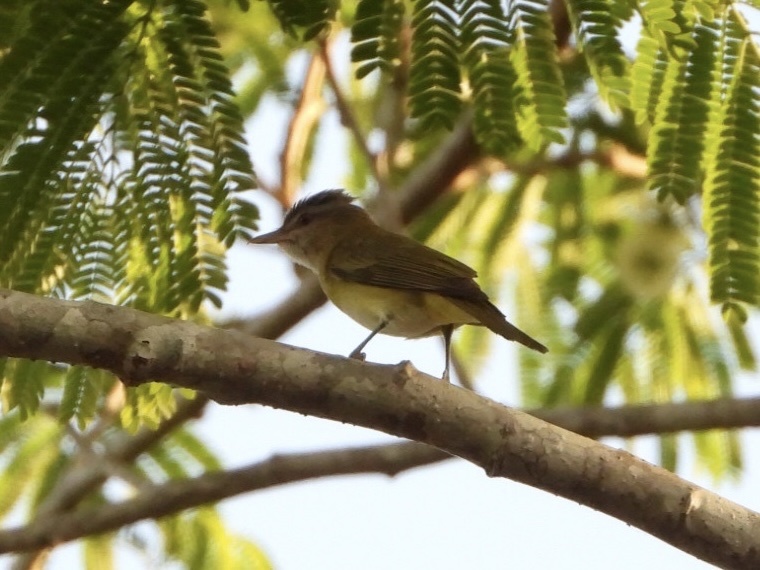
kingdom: Animalia
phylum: Chordata
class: Aves
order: Passeriformes
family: Vireonidae
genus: Vireo
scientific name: Vireo flavoviridis
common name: Yellow-green vireo
